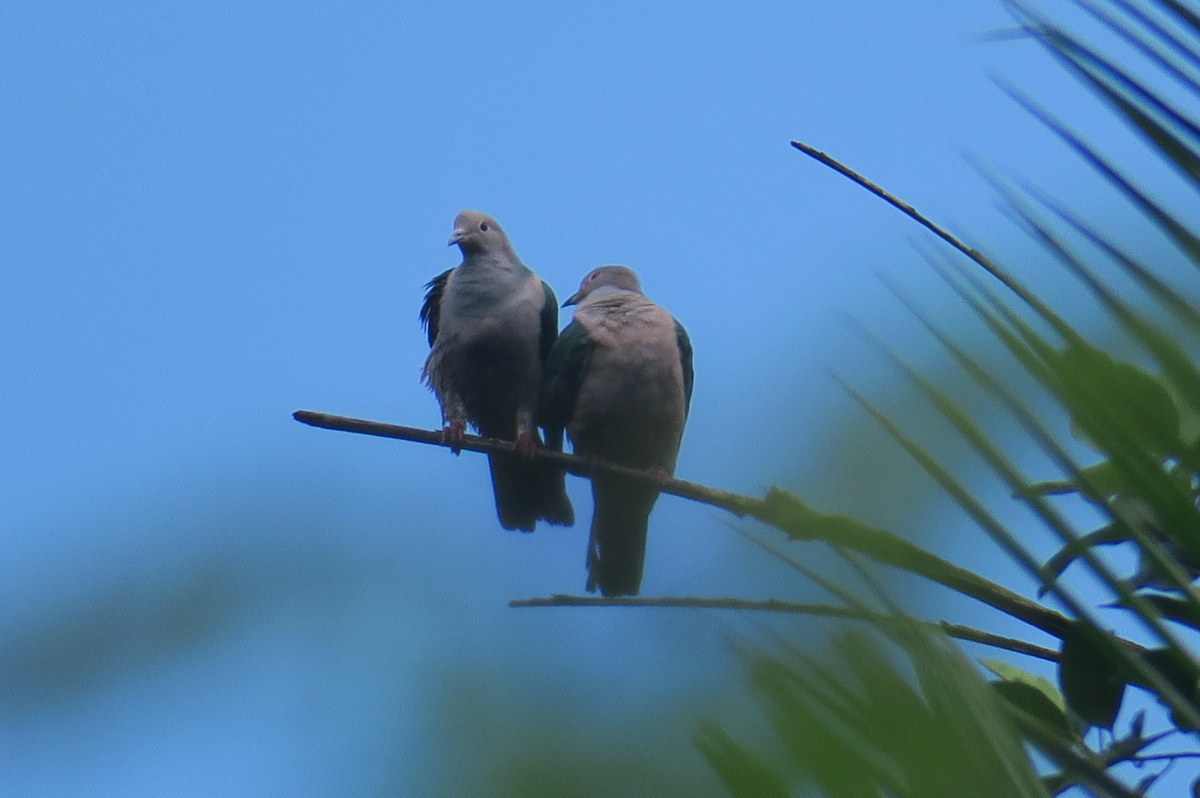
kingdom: Animalia
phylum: Chordata
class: Aves
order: Columbiformes
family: Columbidae
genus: Ducula
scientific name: Ducula aenea
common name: Green imperial pigeon
